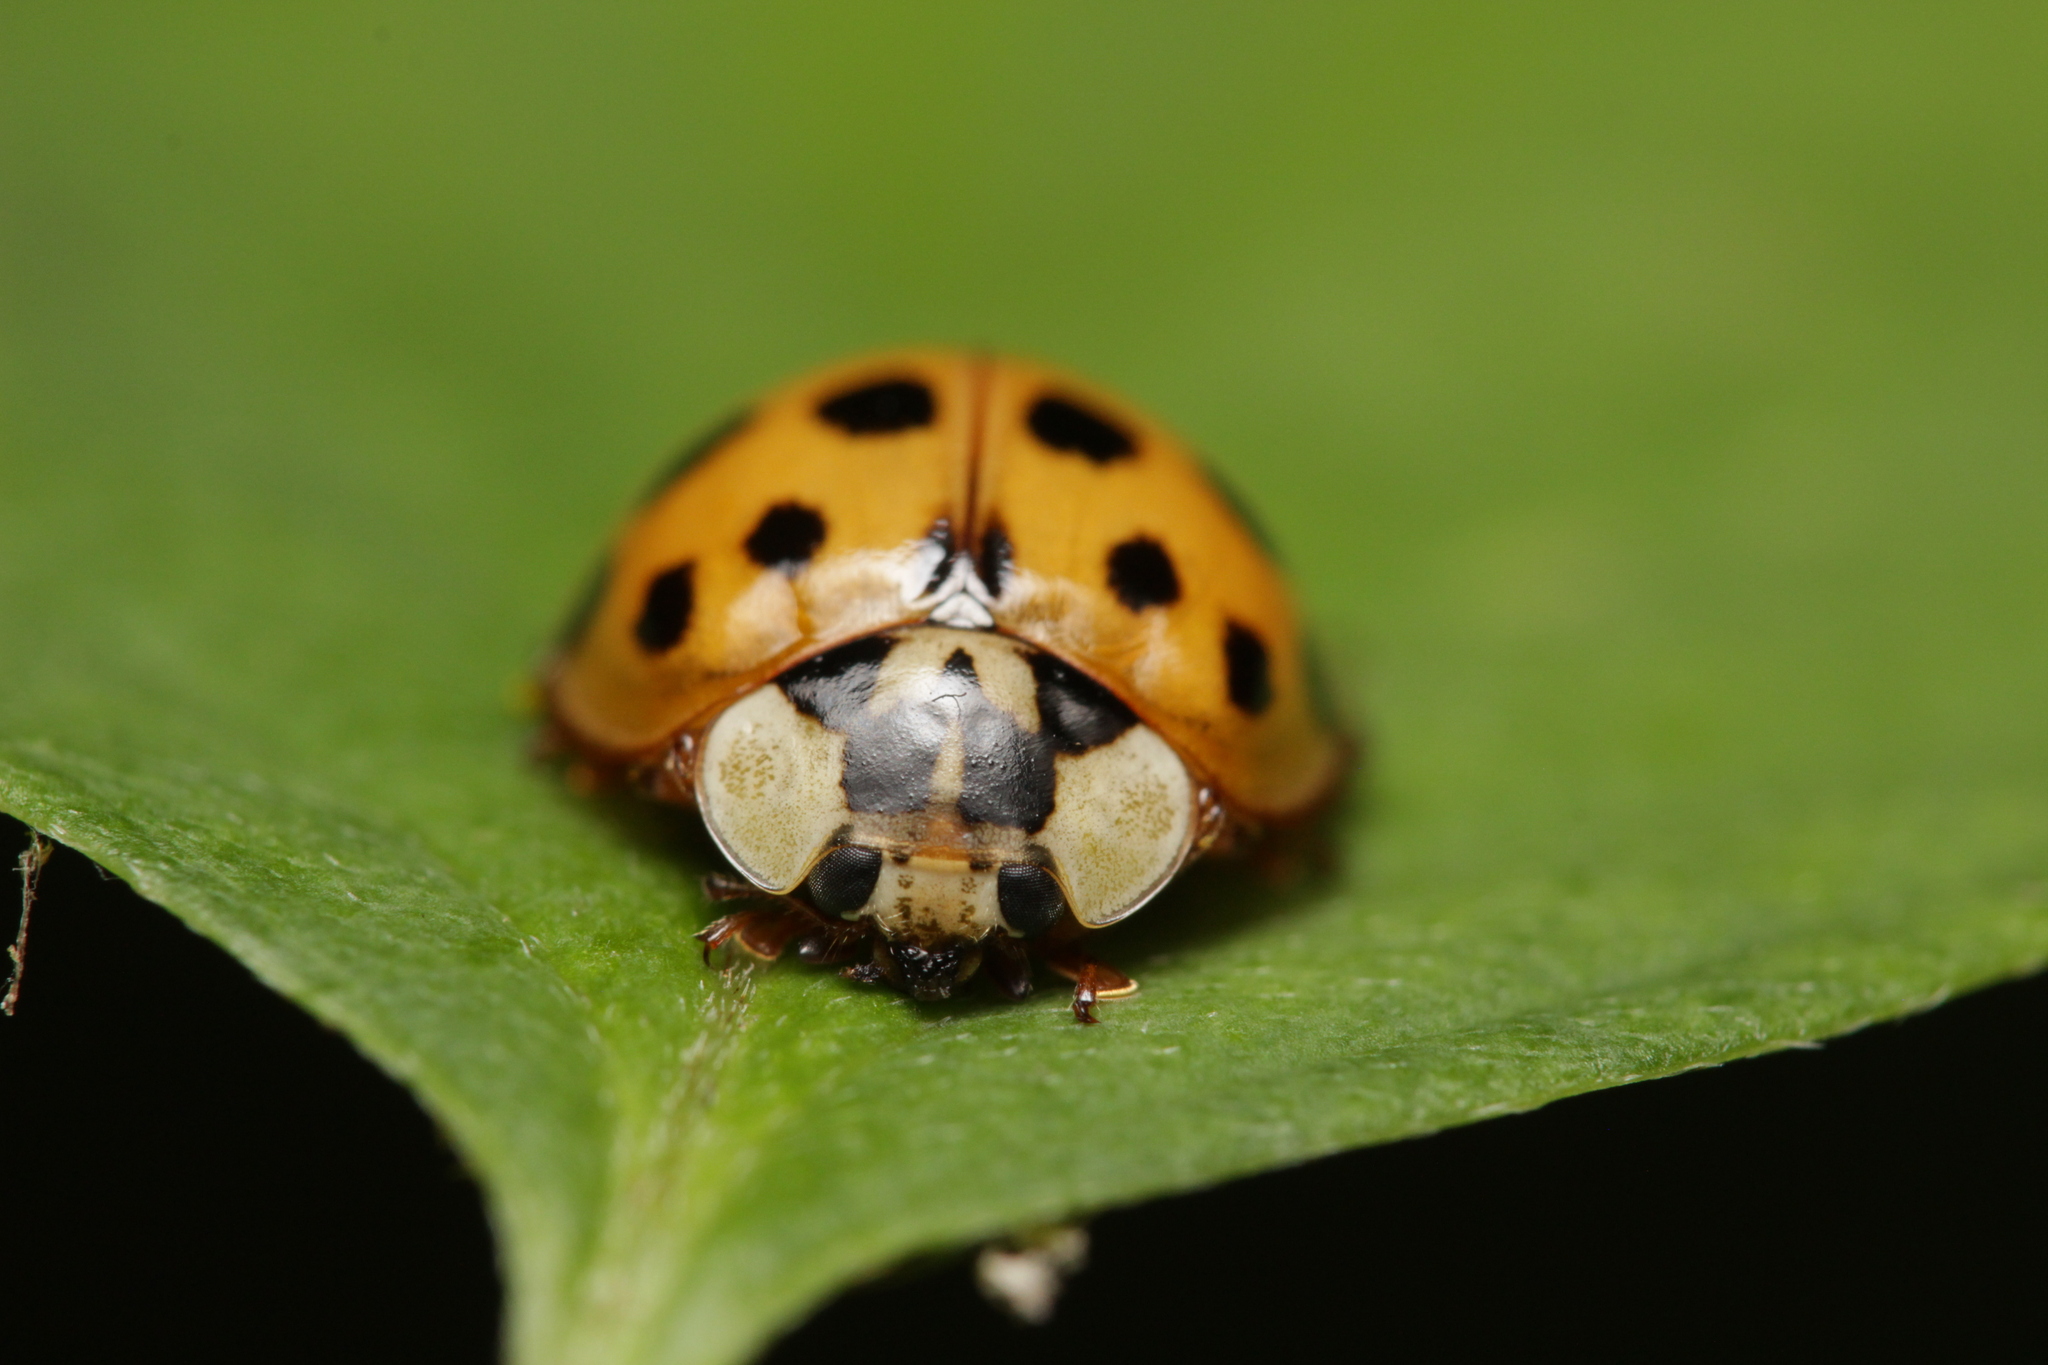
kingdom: Animalia
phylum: Arthropoda
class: Insecta
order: Coleoptera
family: Coccinellidae
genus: Harmonia
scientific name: Harmonia axyridis
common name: Harlequin ladybird
